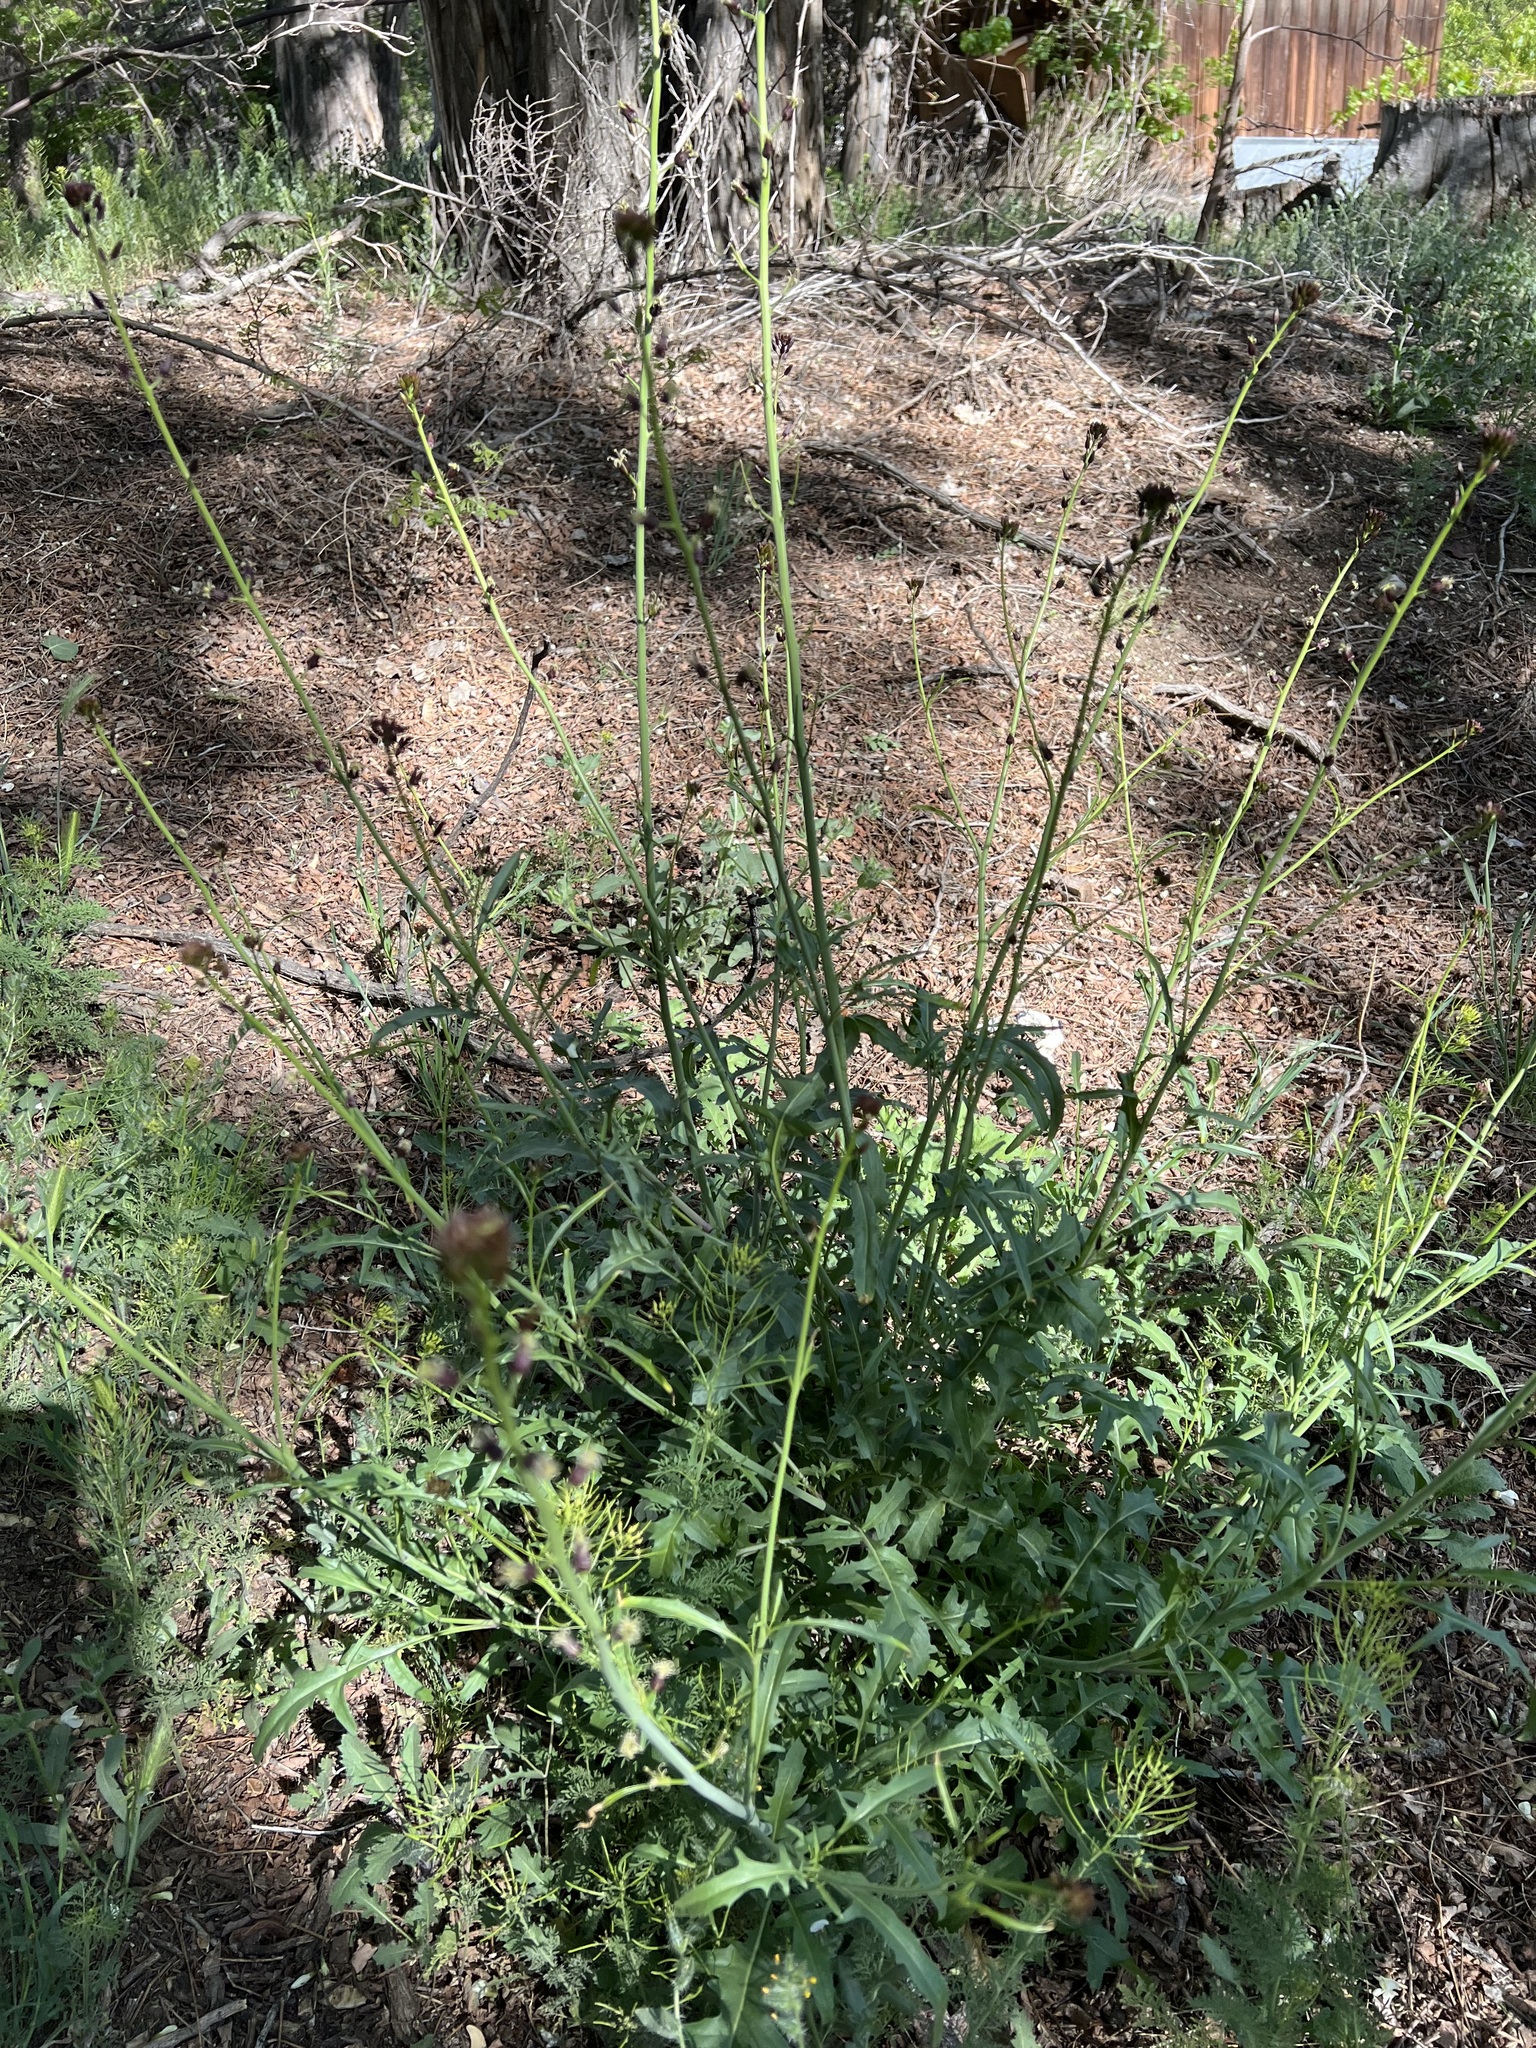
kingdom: Plantae
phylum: Tracheophyta
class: Magnoliopsida
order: Brassicales
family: Brassicaceae
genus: Streptanthus
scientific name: Streptanthus pilosus
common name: Chocolate drops
